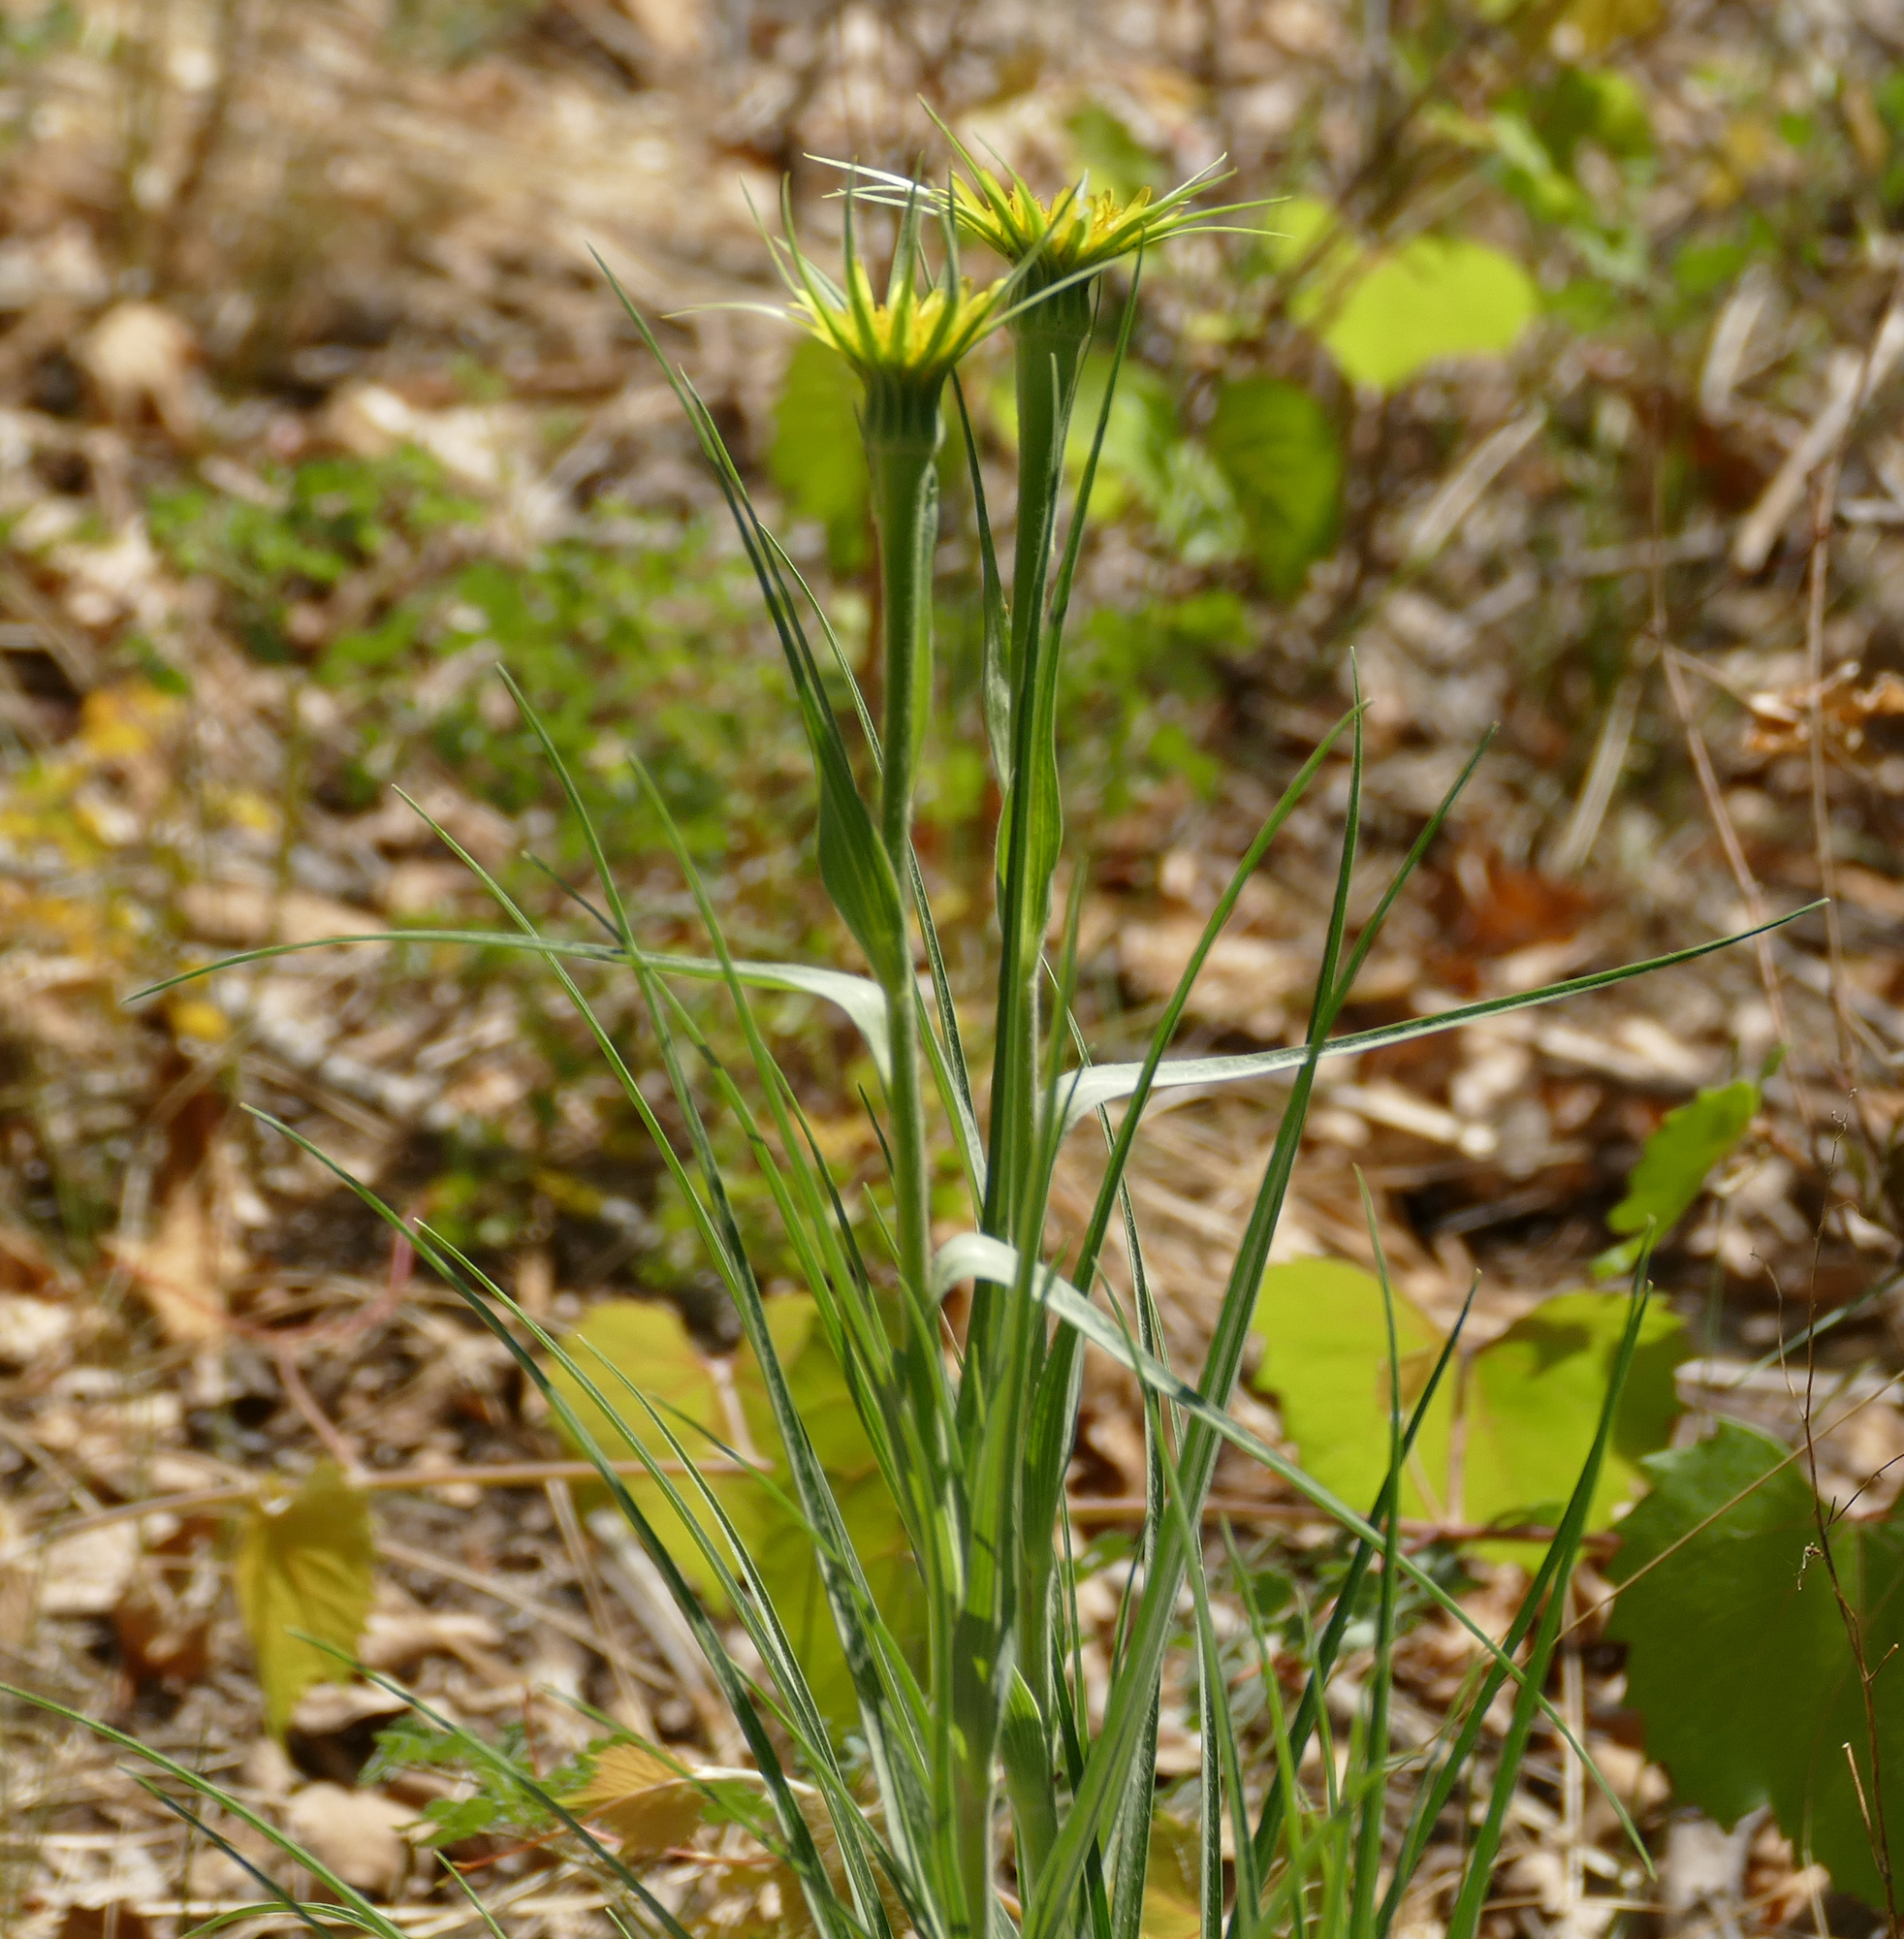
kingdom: Plantae
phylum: Tracheophyta
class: Magnoliopsida
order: Asterales
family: Asteraceae
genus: Tragopogon
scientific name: Tragopogon dubius
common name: Yellow salsify
